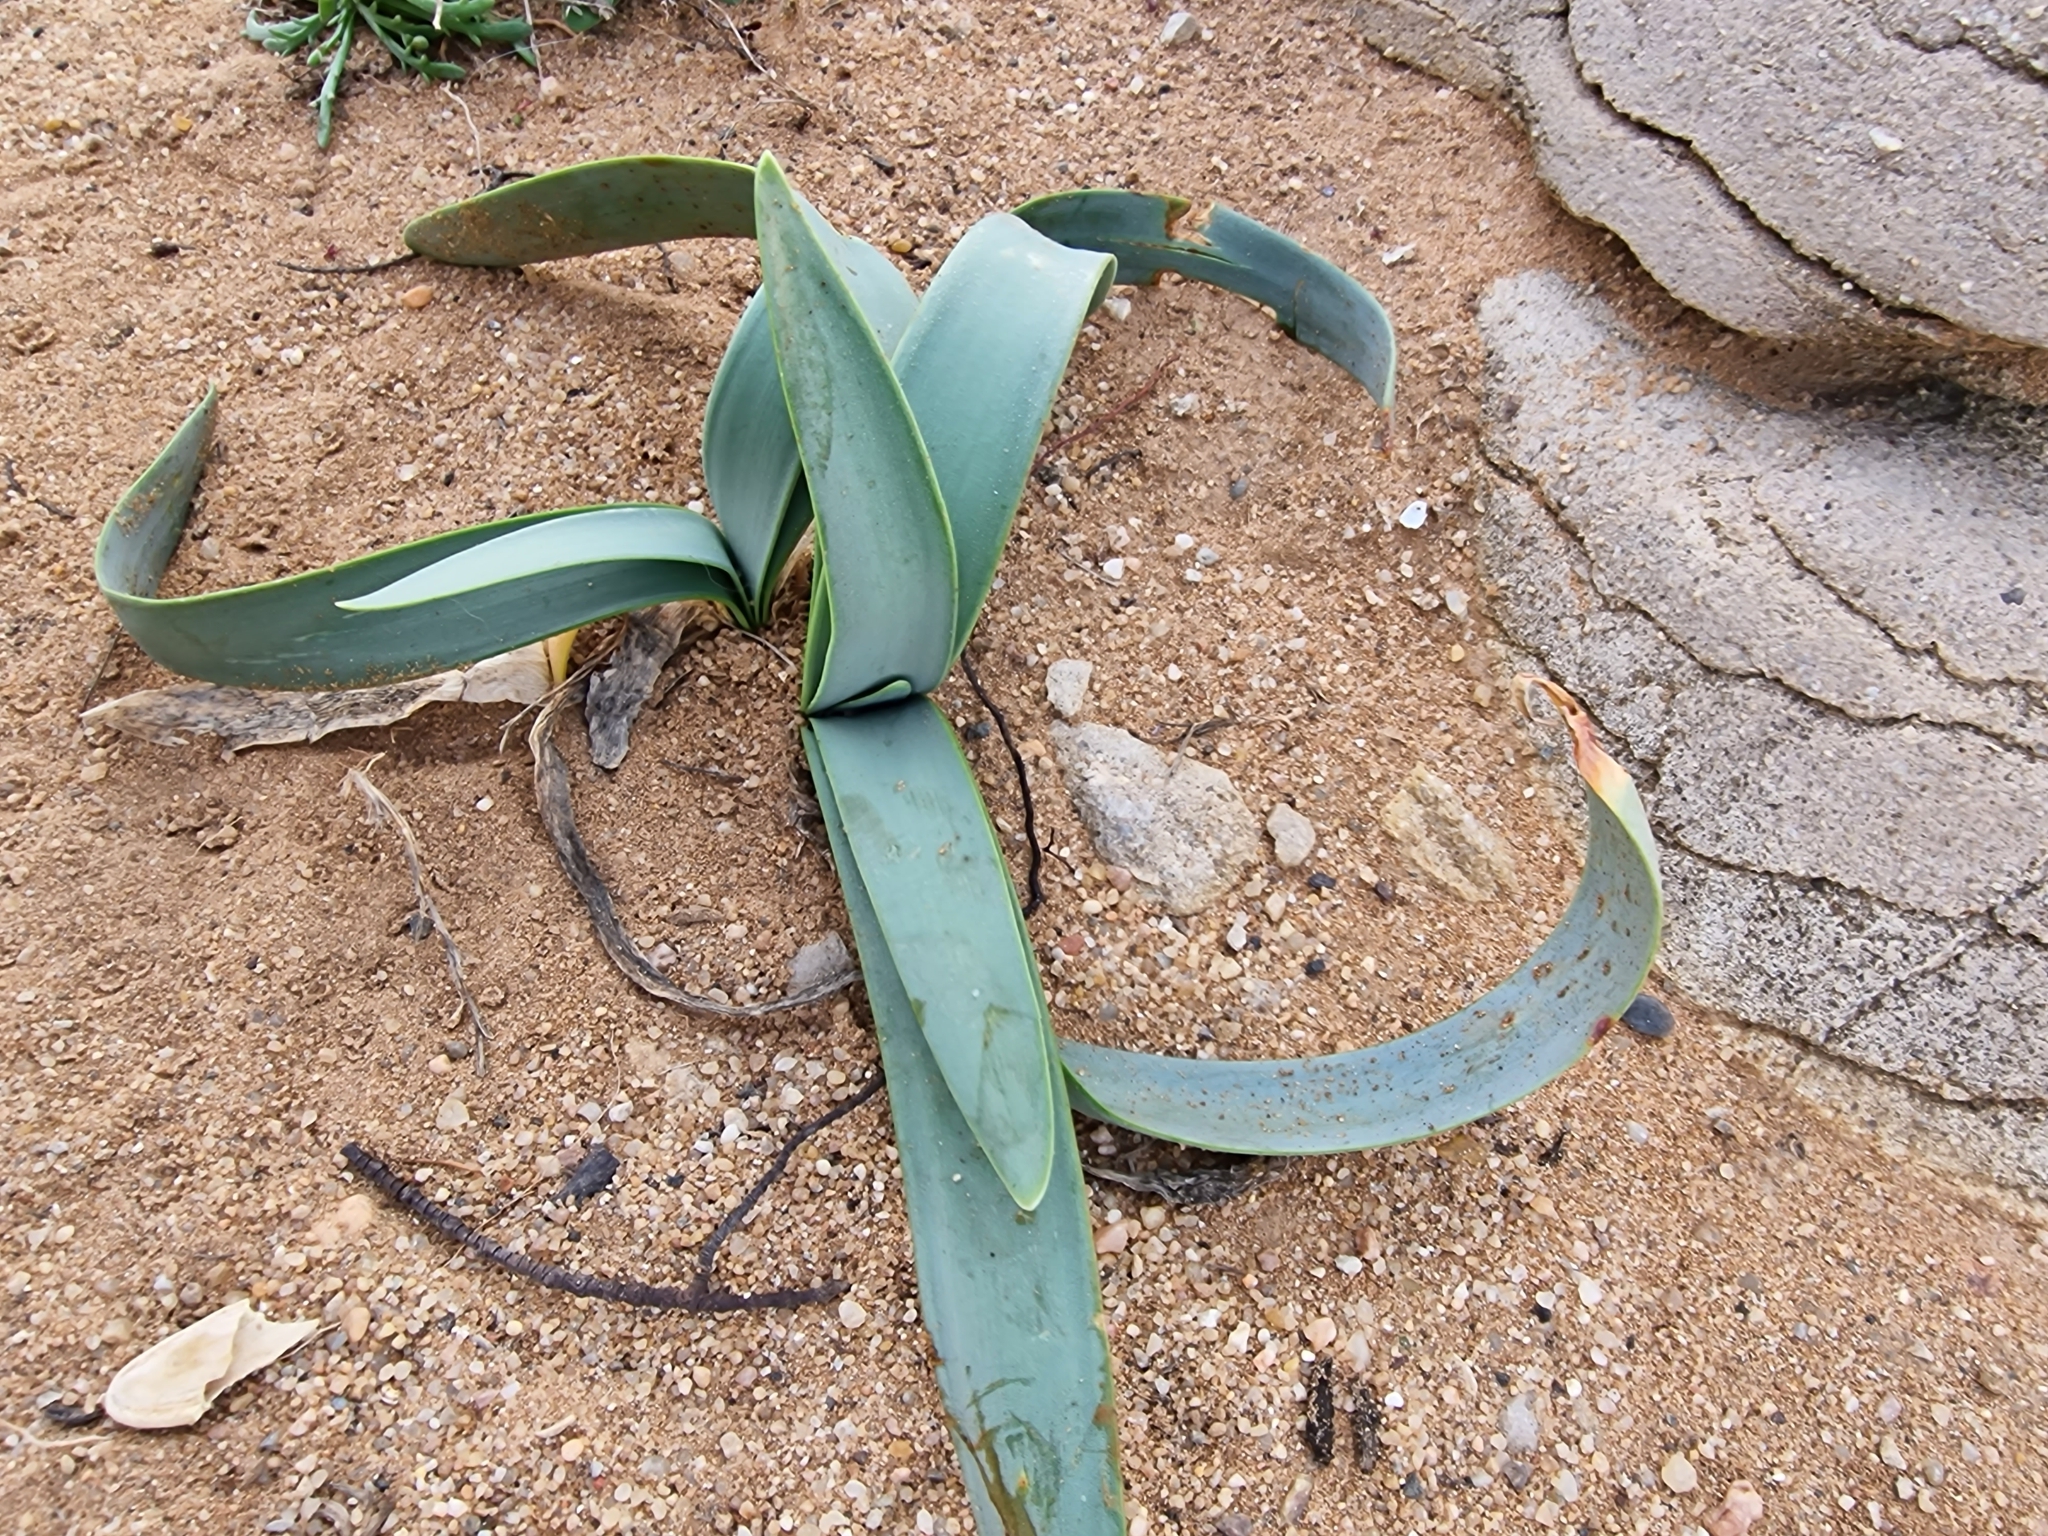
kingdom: Plantae
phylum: Tracheophyta
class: Liliopsida
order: Asparagales
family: Amaryllidaceae
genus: Pancratium
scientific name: Pancratium maritimum
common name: Sea-daffodil
